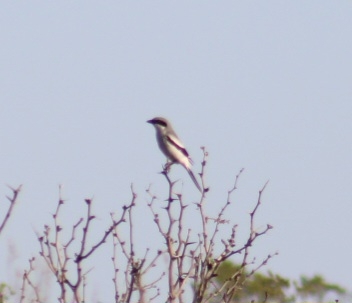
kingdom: Animalia
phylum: Chordata
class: Aves
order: Passeriformes
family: Laniidae
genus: Lanius
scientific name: Lanius ludovicianus
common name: Loggerhead shrike
